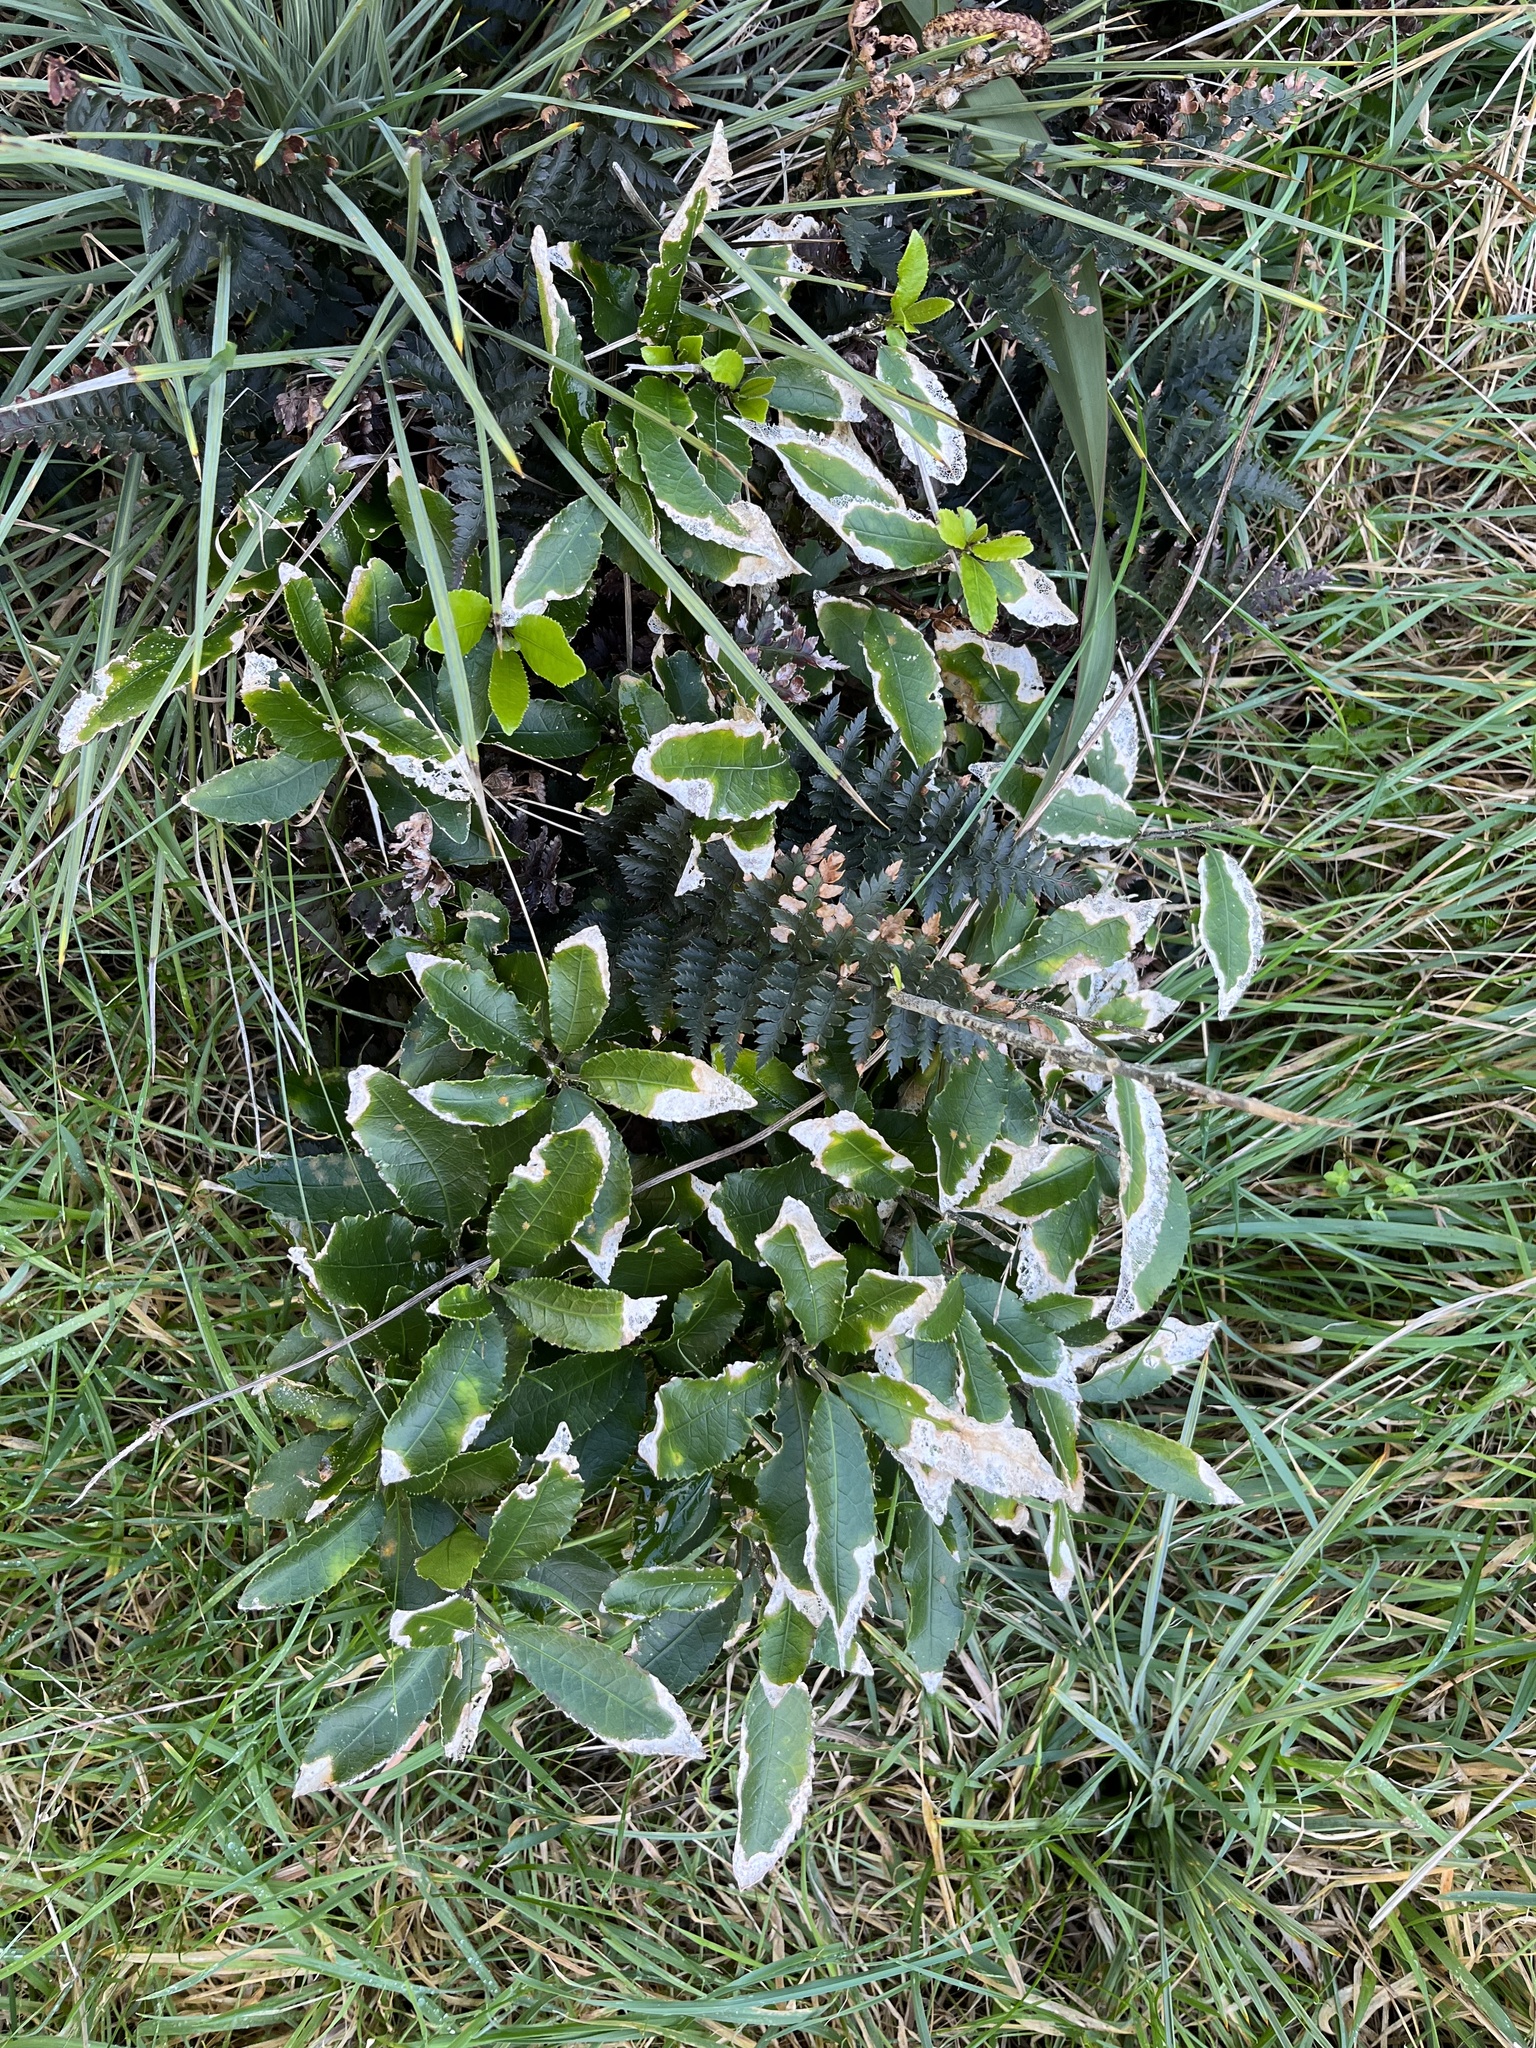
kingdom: Plantae
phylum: Tracheophyta
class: Magnoliopsida
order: Malpighiales
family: Violaceae
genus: Melicytus
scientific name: Melicytus ramiflorus
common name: Mahoe
